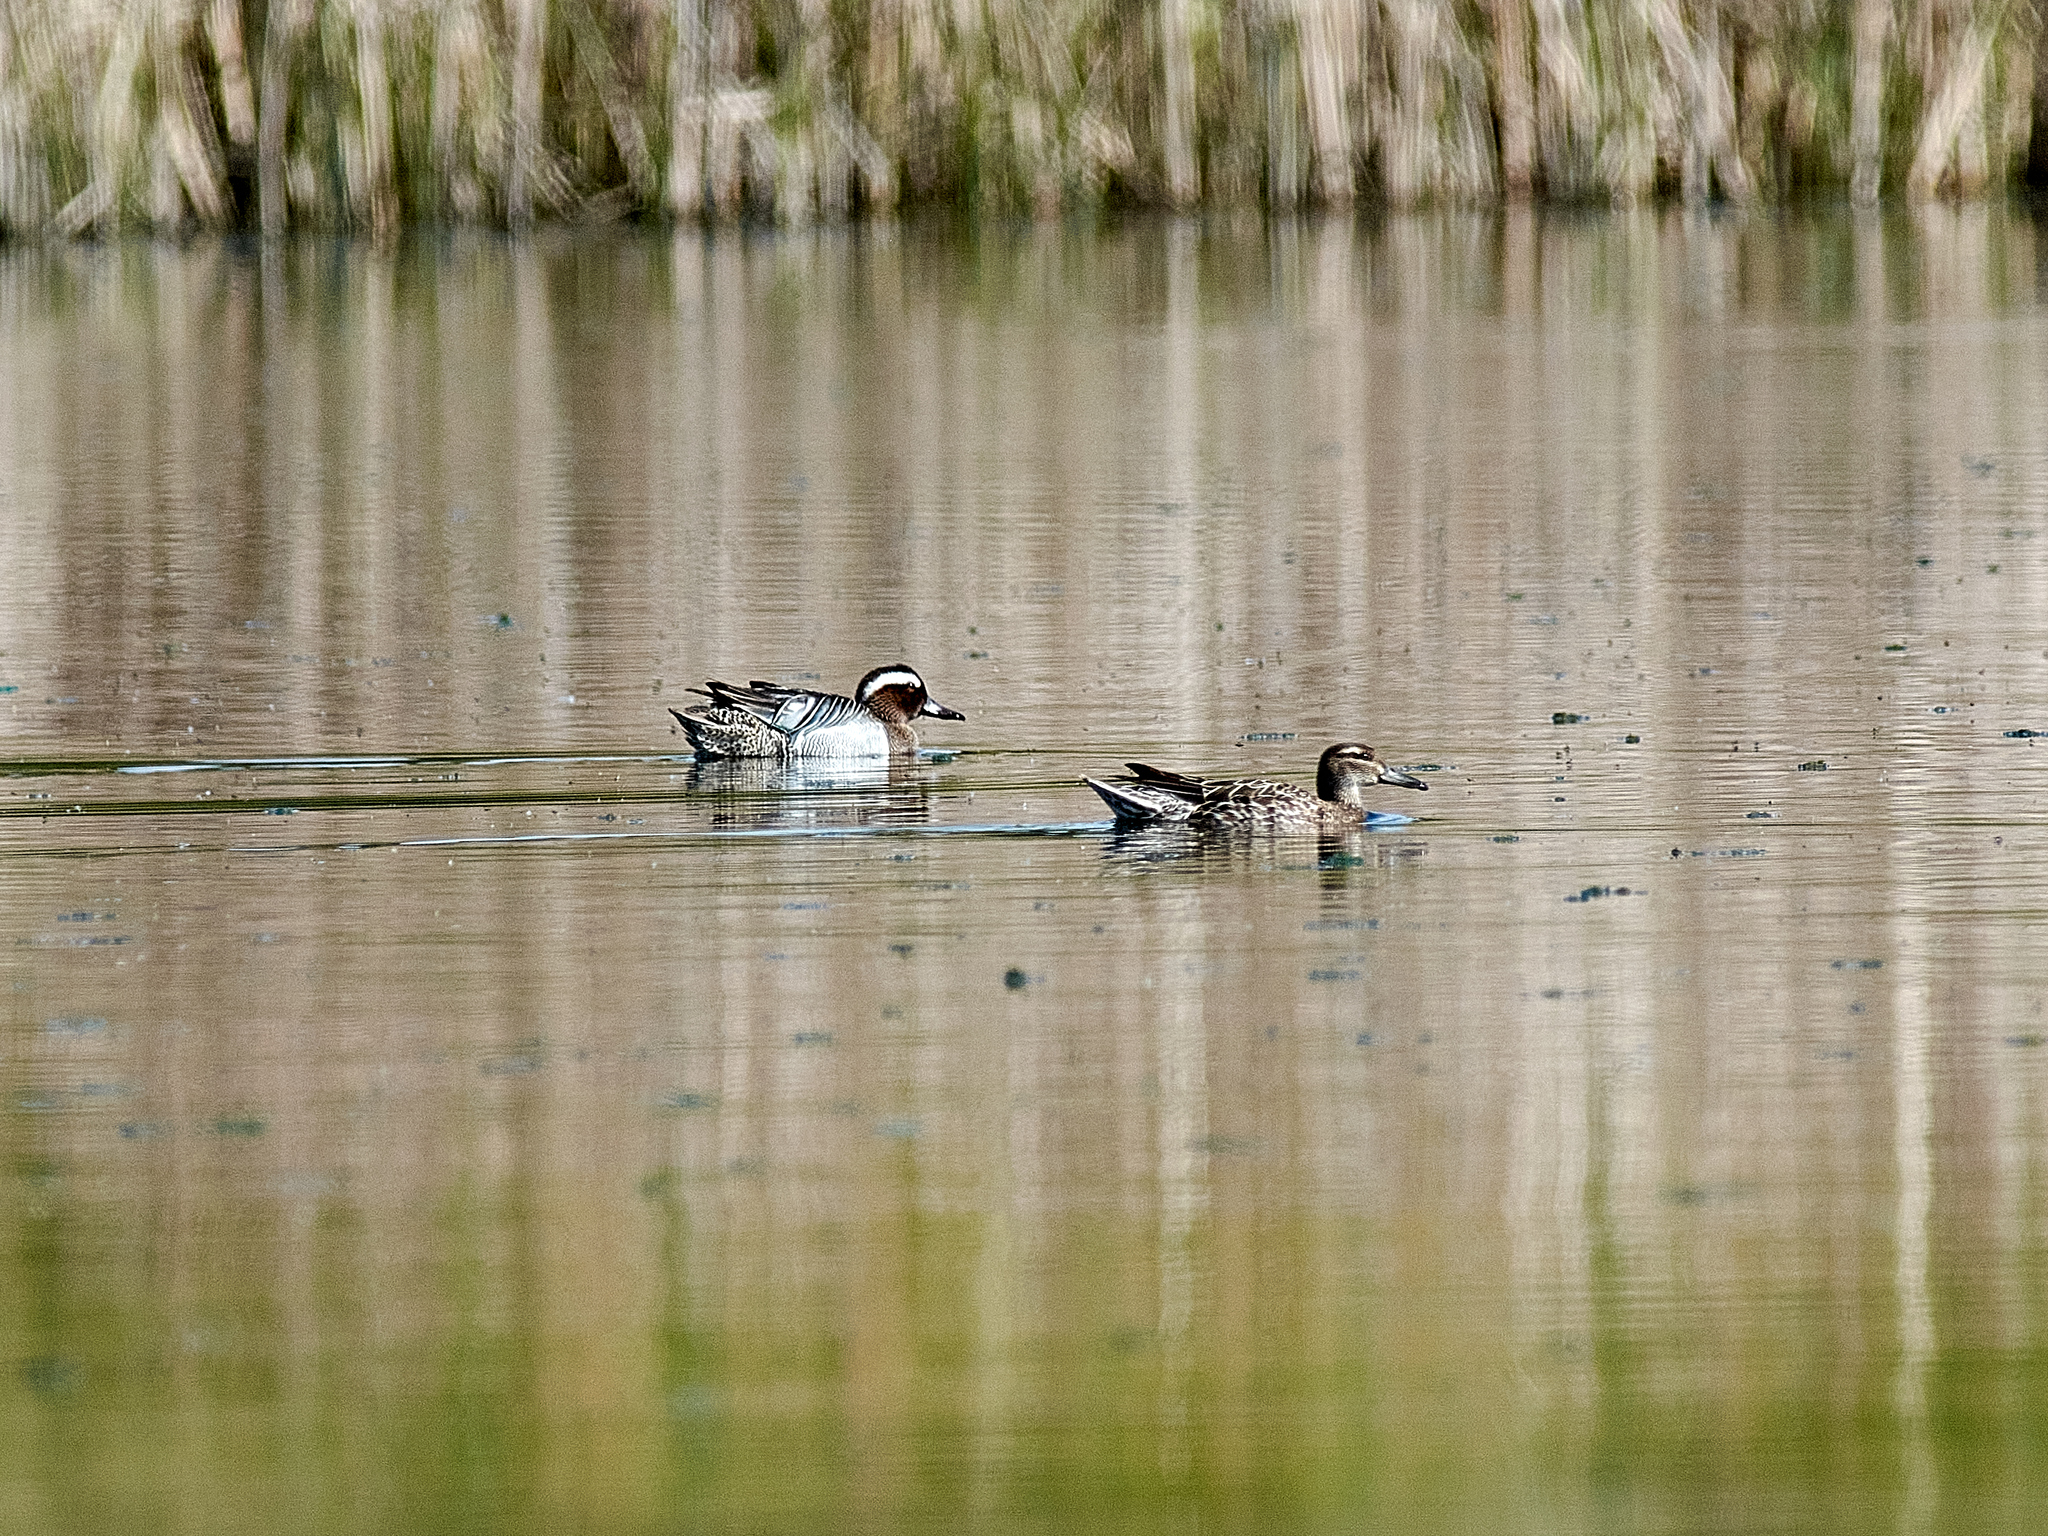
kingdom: Animalia
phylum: Chordata
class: Aves
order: Anseriformes
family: Anatidae
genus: Spatula
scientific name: Spatula querquedula
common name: Garganey
